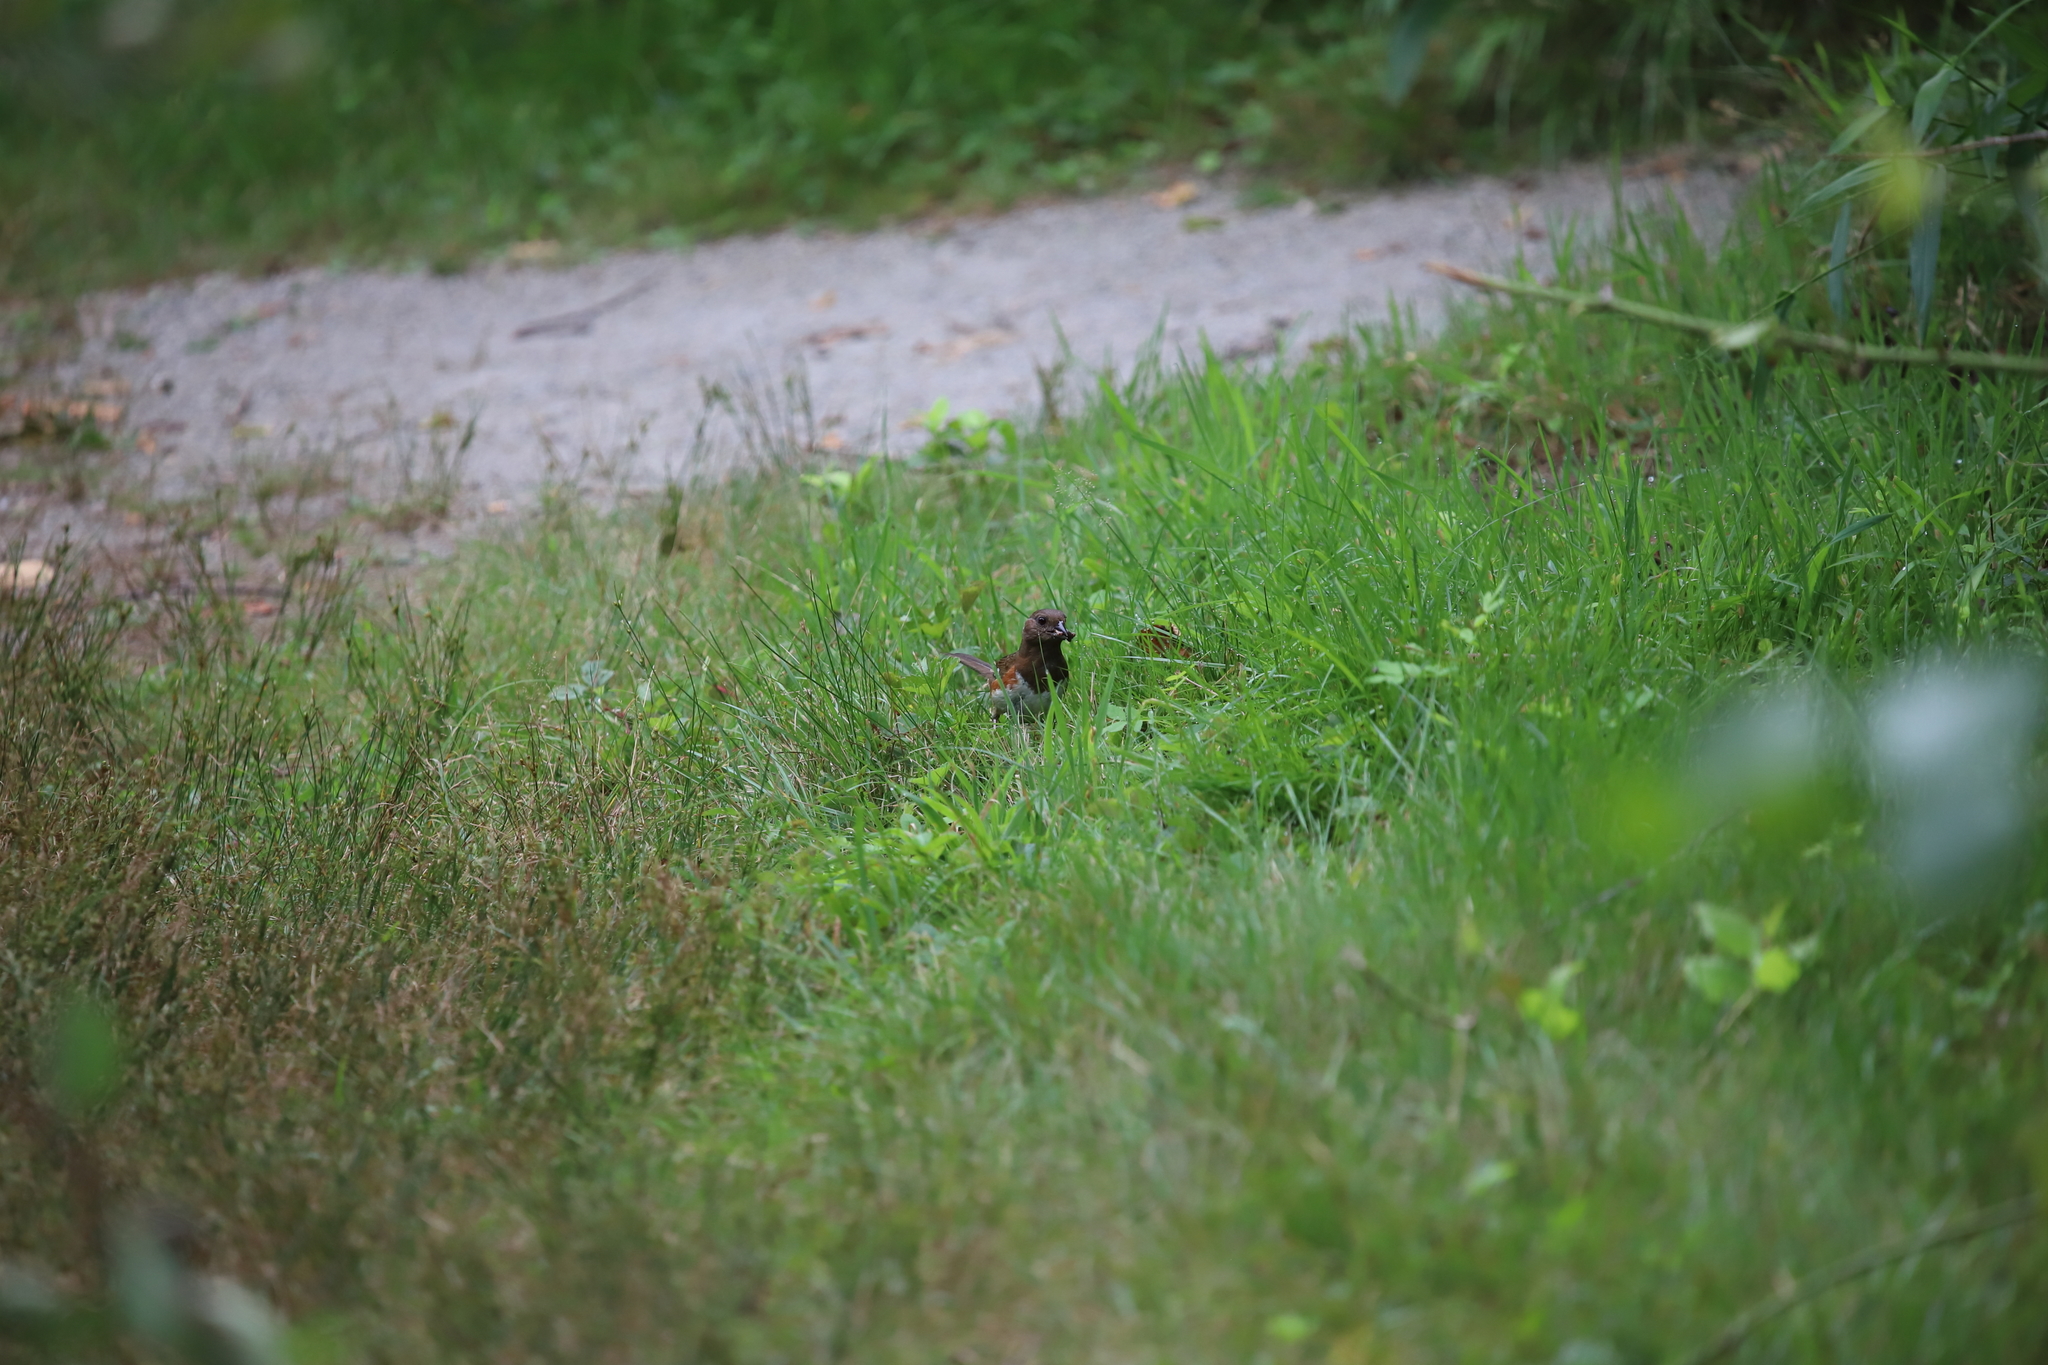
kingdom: Animalia
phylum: Chordata
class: Aves
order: Passeriformes
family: Passerellidae
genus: Pipilo
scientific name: Pipilo erythrophthalmus
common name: Eastern towhee
